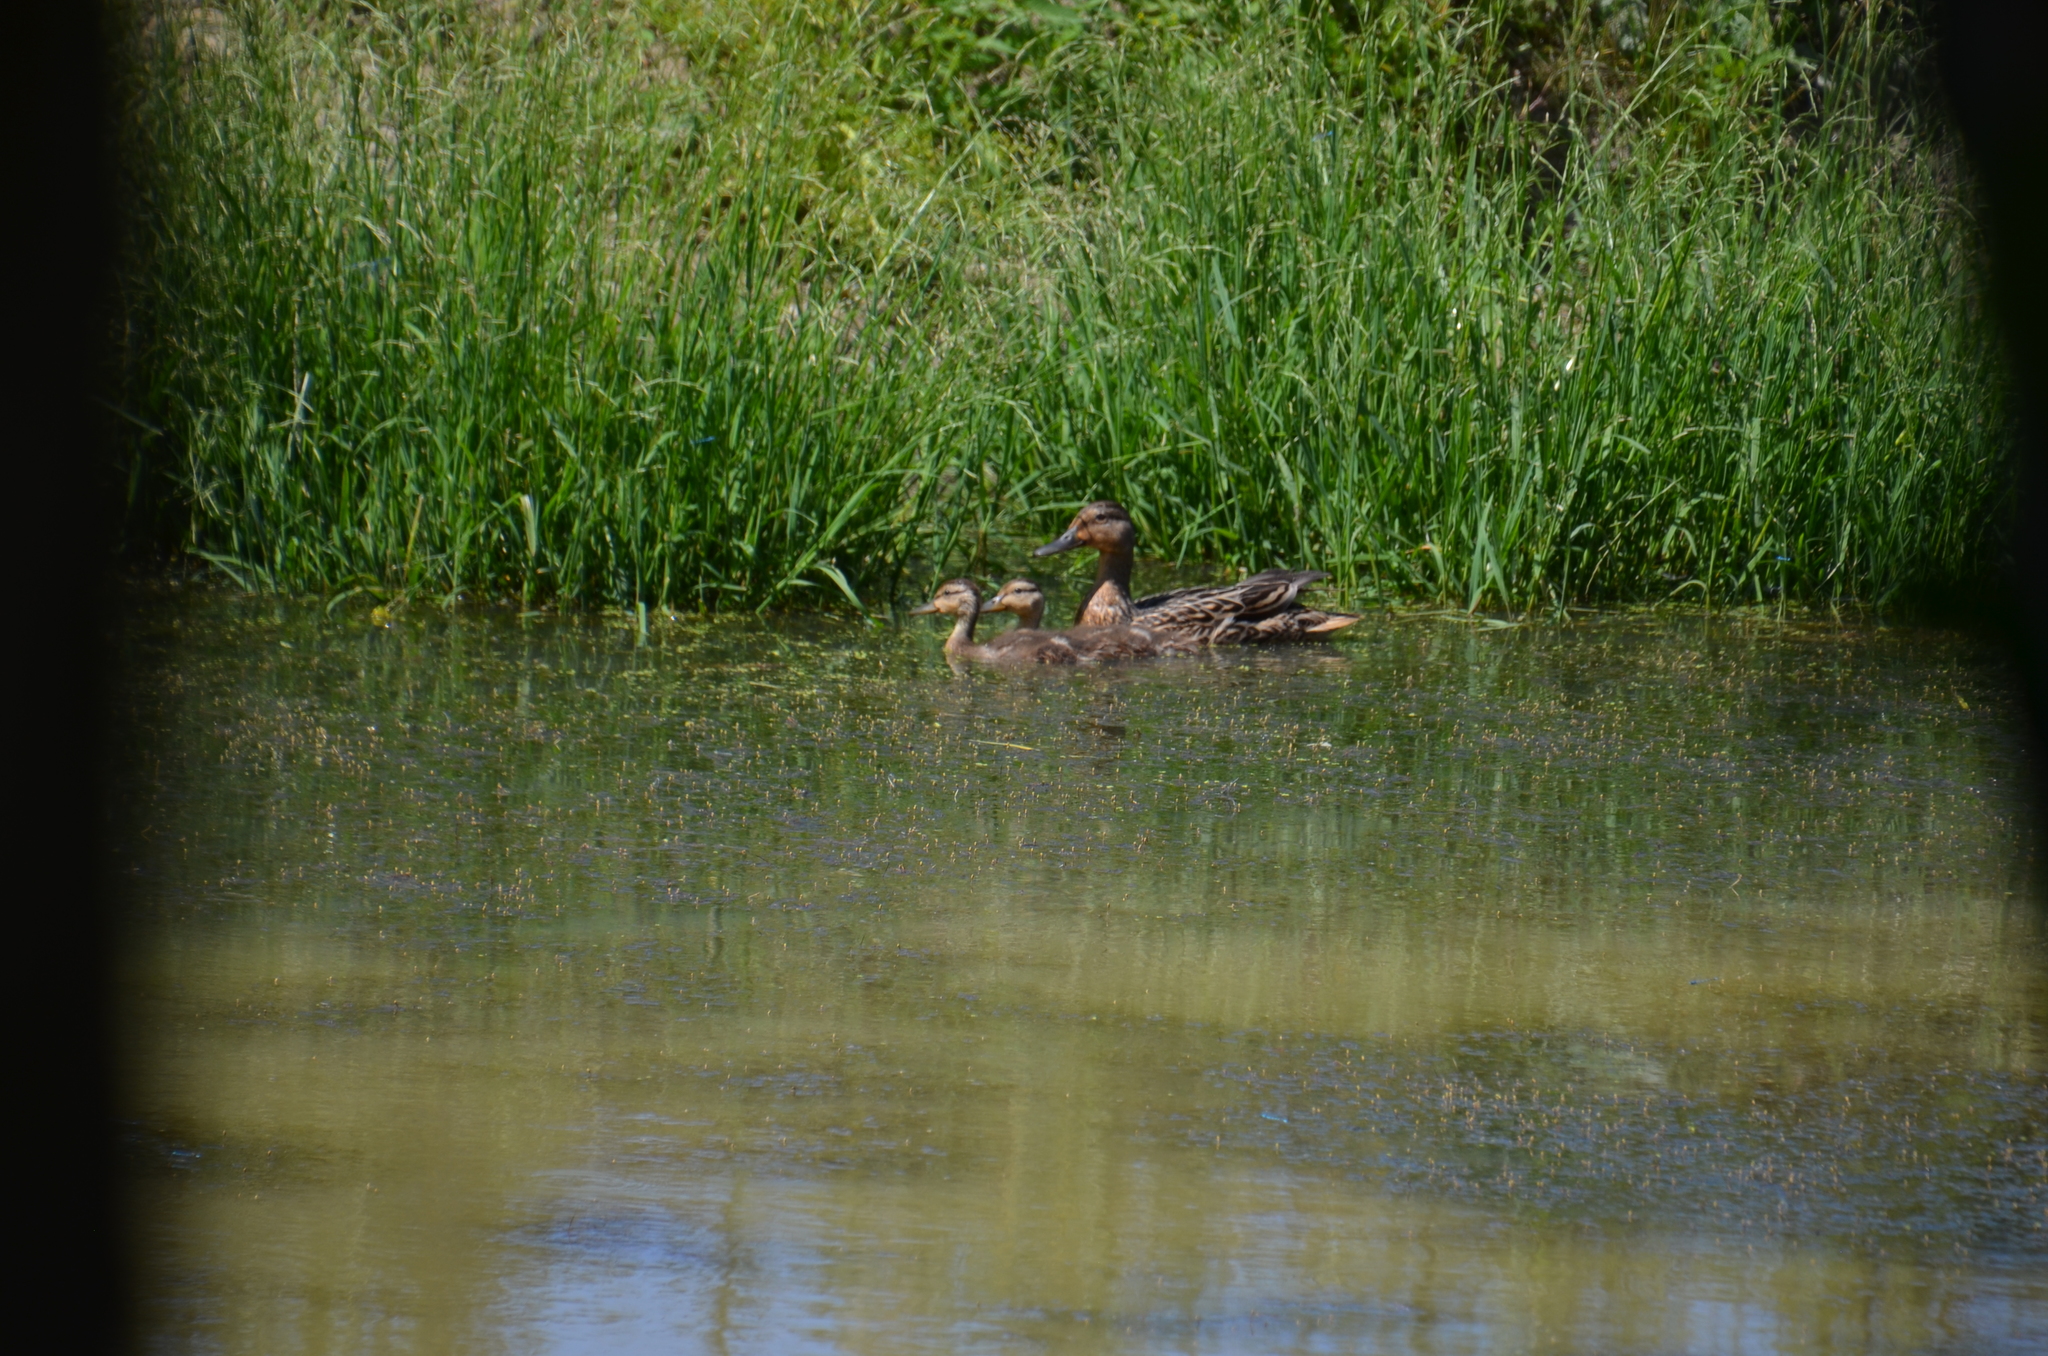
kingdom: Animalia
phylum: Chordata
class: Aves
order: Anseriformes
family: Anatidae
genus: Spatula
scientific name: Spatula discors
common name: Blue-winged teal
